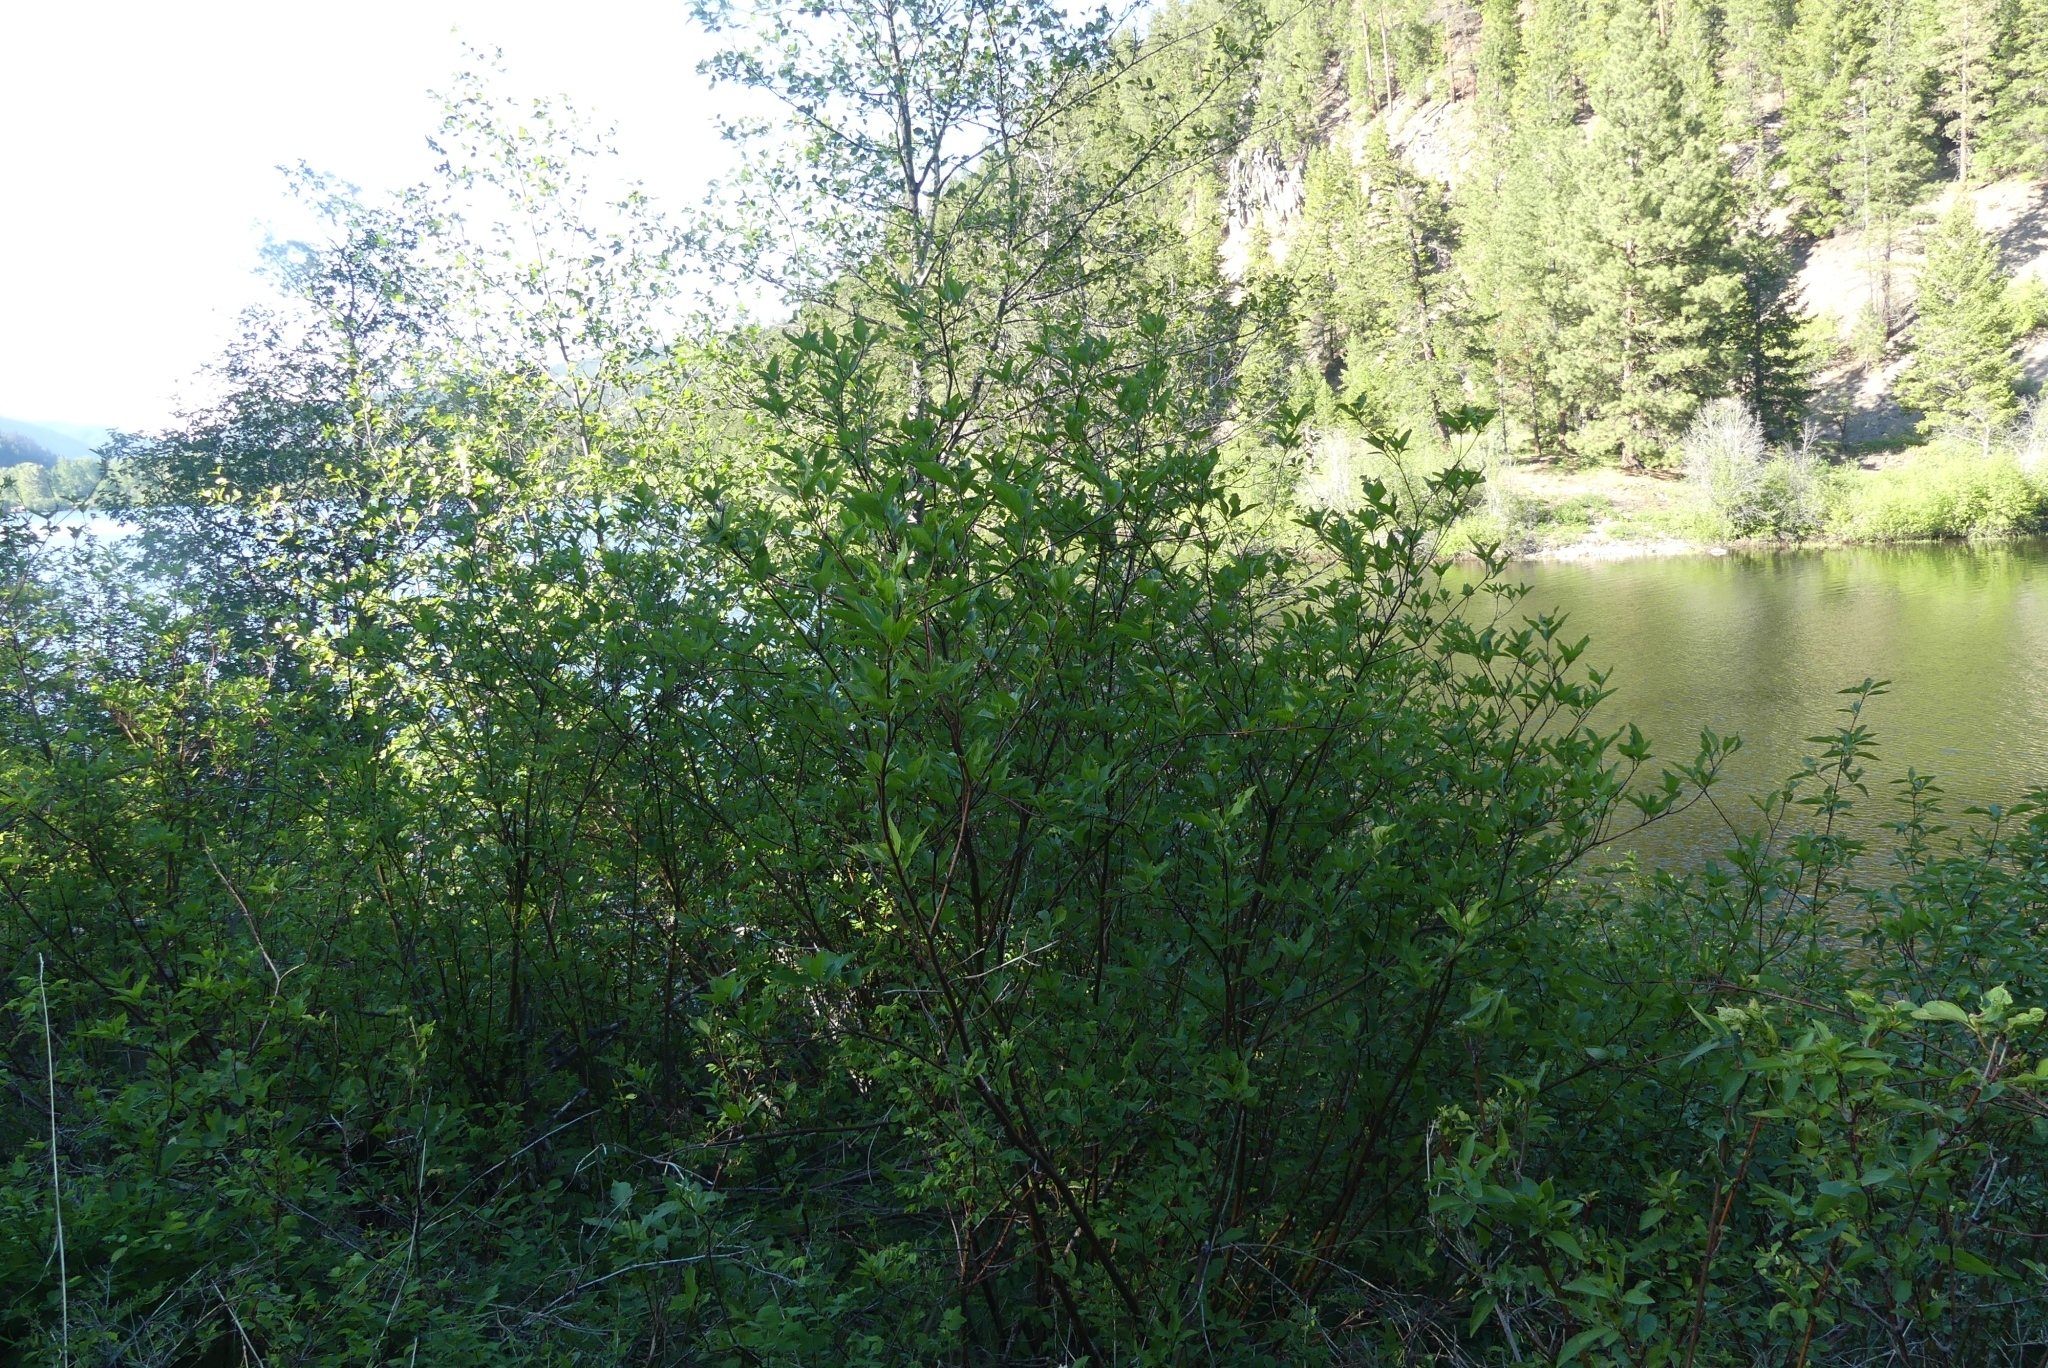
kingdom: Plantae
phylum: Tracheophyta
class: Magnoliopsida
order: Cornales
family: Cornaceae
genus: Cornus
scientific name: Cornus sericea
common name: Red-osier dogwood
